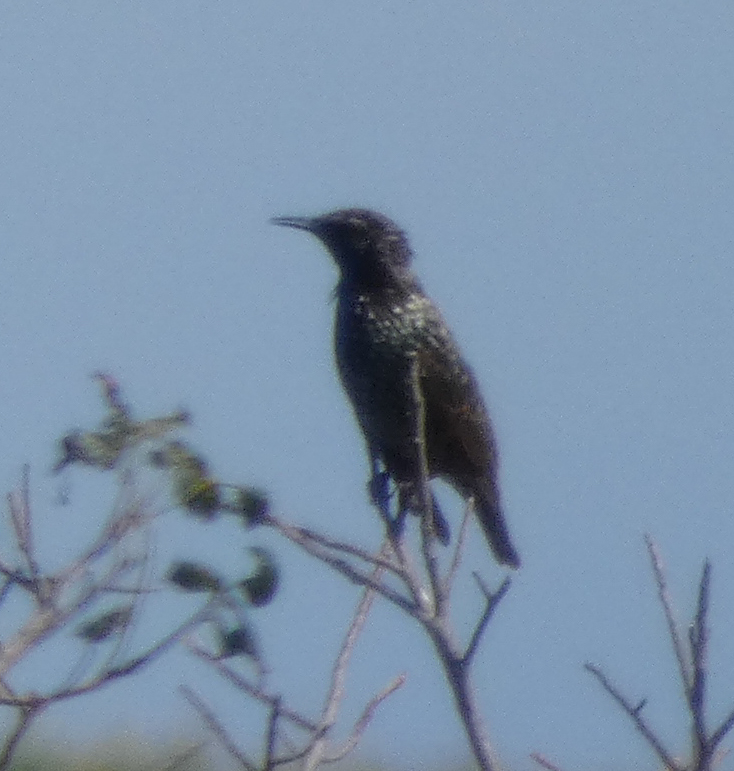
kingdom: Animalia
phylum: Chordata
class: Aves
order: Passeriformes
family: Sturnidae
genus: Sturnus
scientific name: Sturnus vulgaris
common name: Common starling
